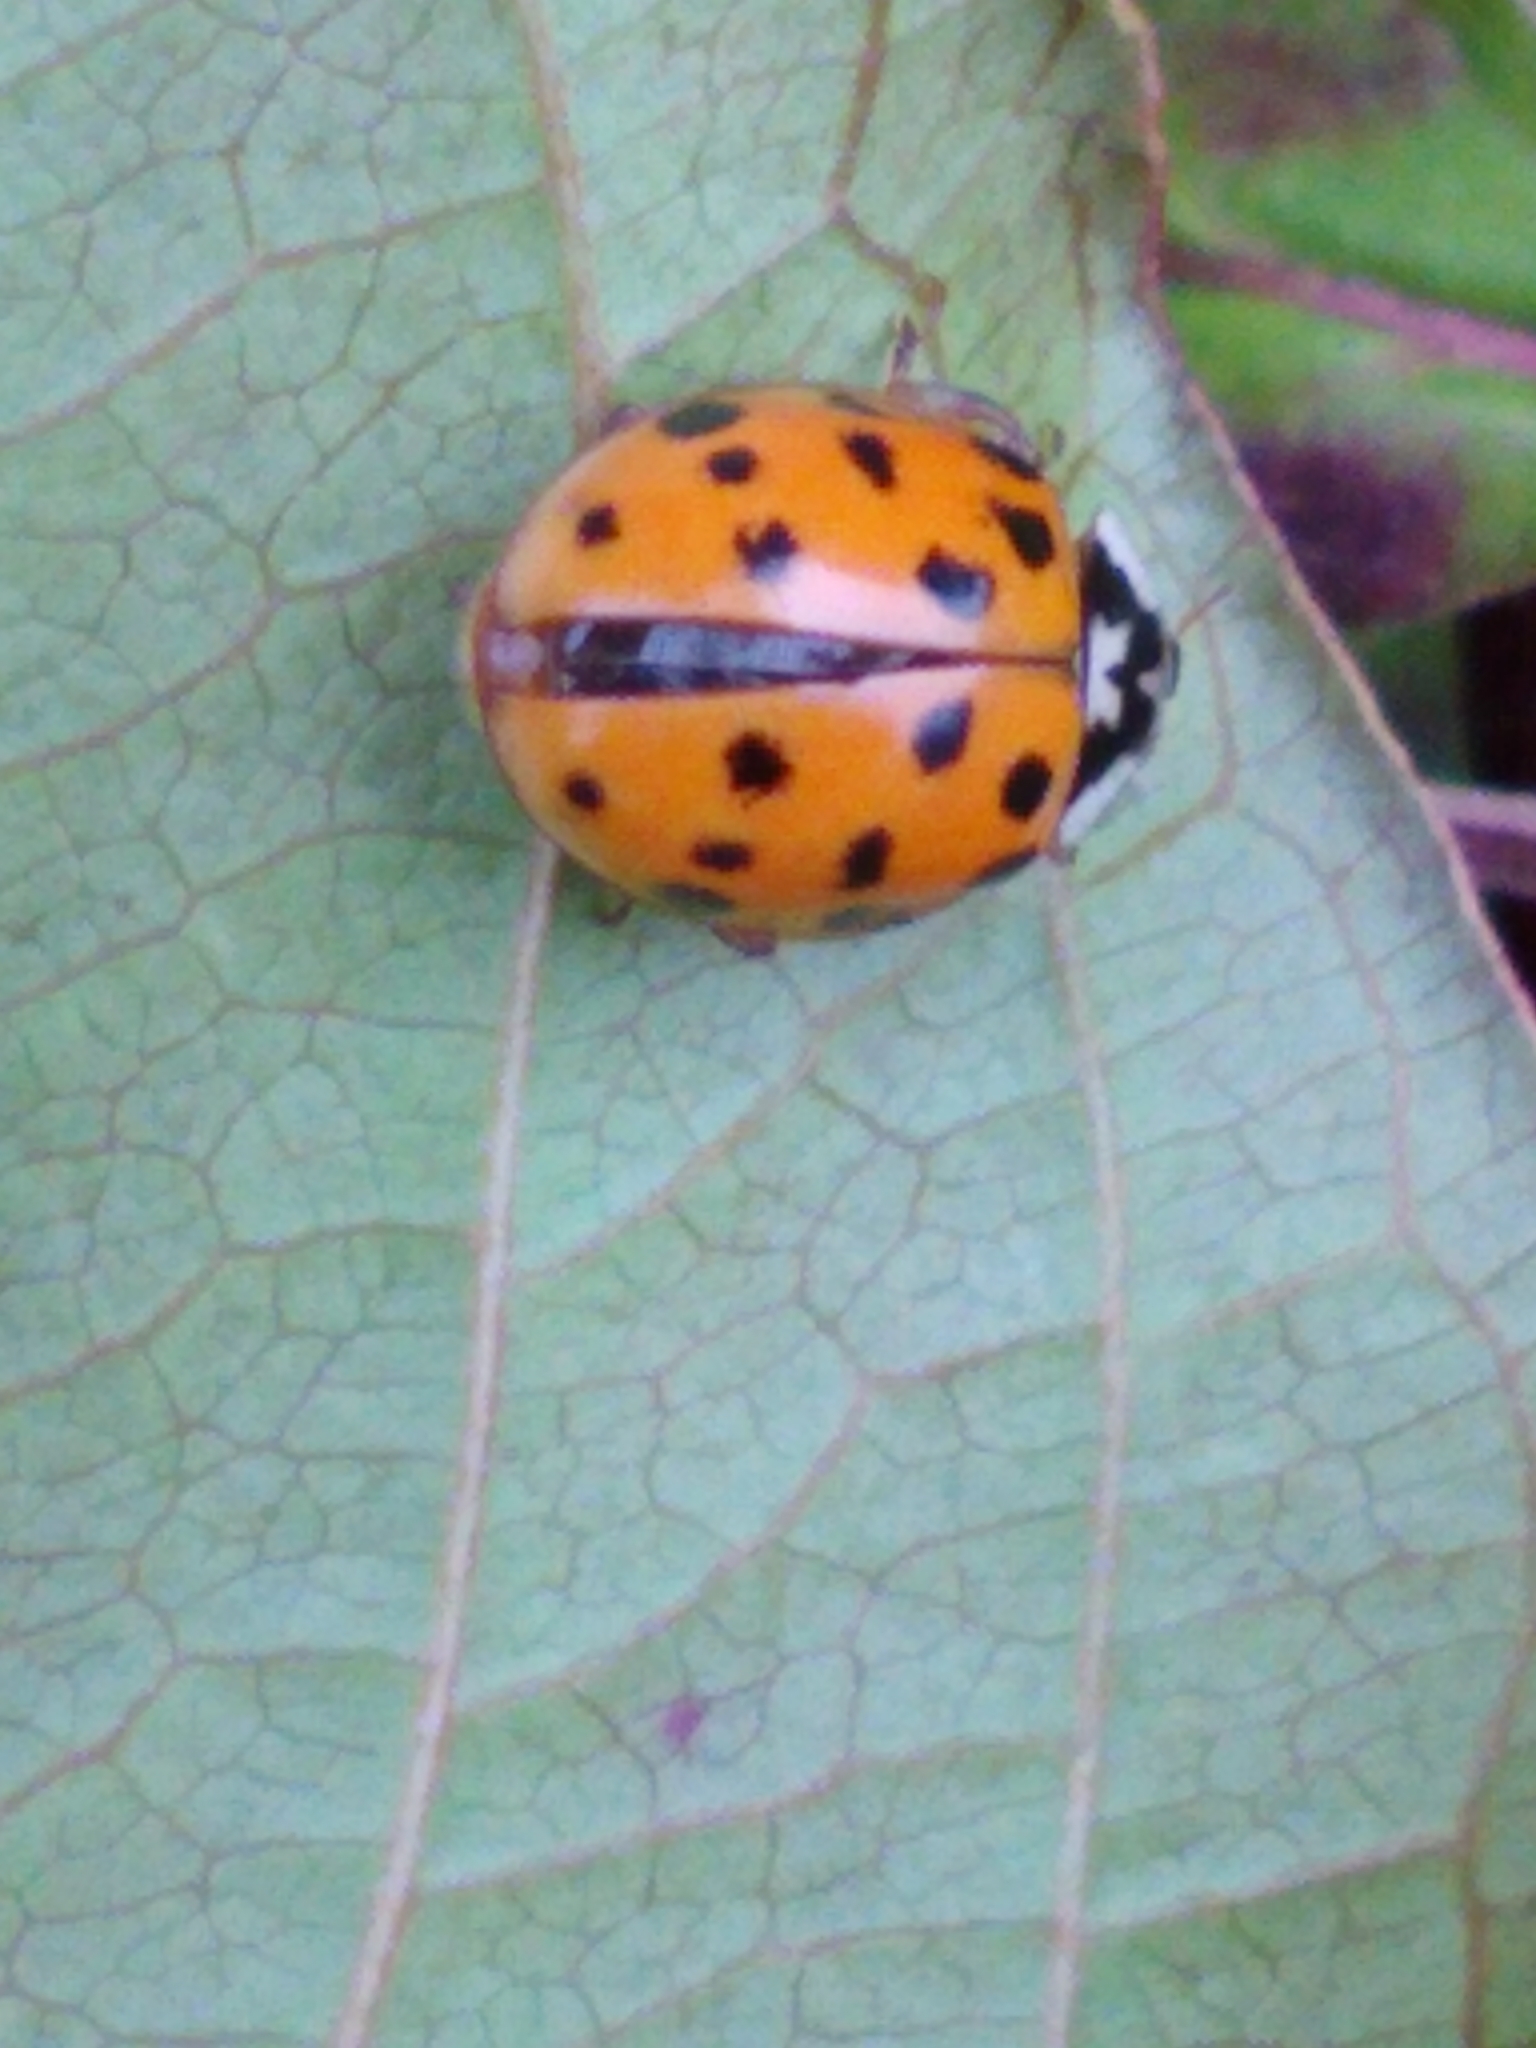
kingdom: Animalia
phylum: Arthropoda
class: Insecta
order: Coleoptera
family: Coccinellidae
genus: Harmonia
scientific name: Harmonia axyridis
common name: Harlequin ladybird
